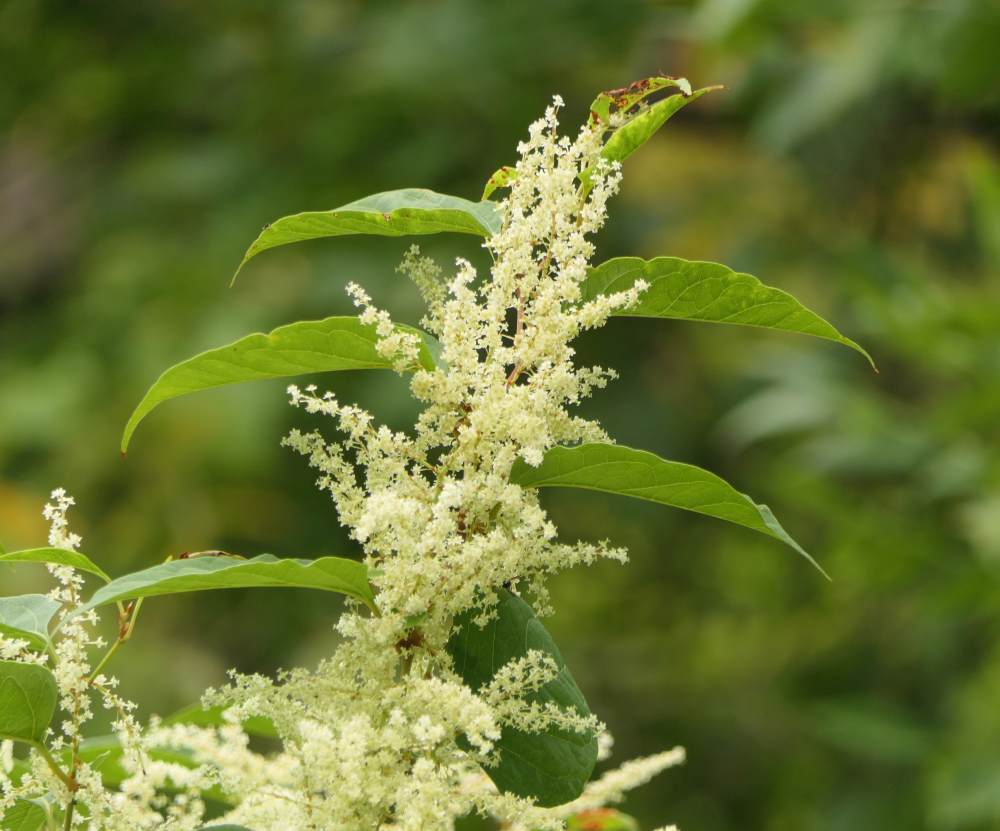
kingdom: Plantae
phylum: Tracheophyta
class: Magnoliopsida
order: Caryophyllales
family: Polygonaceae
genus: Reynoutria
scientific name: Reynoutria japonica
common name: Japanese knotweed
